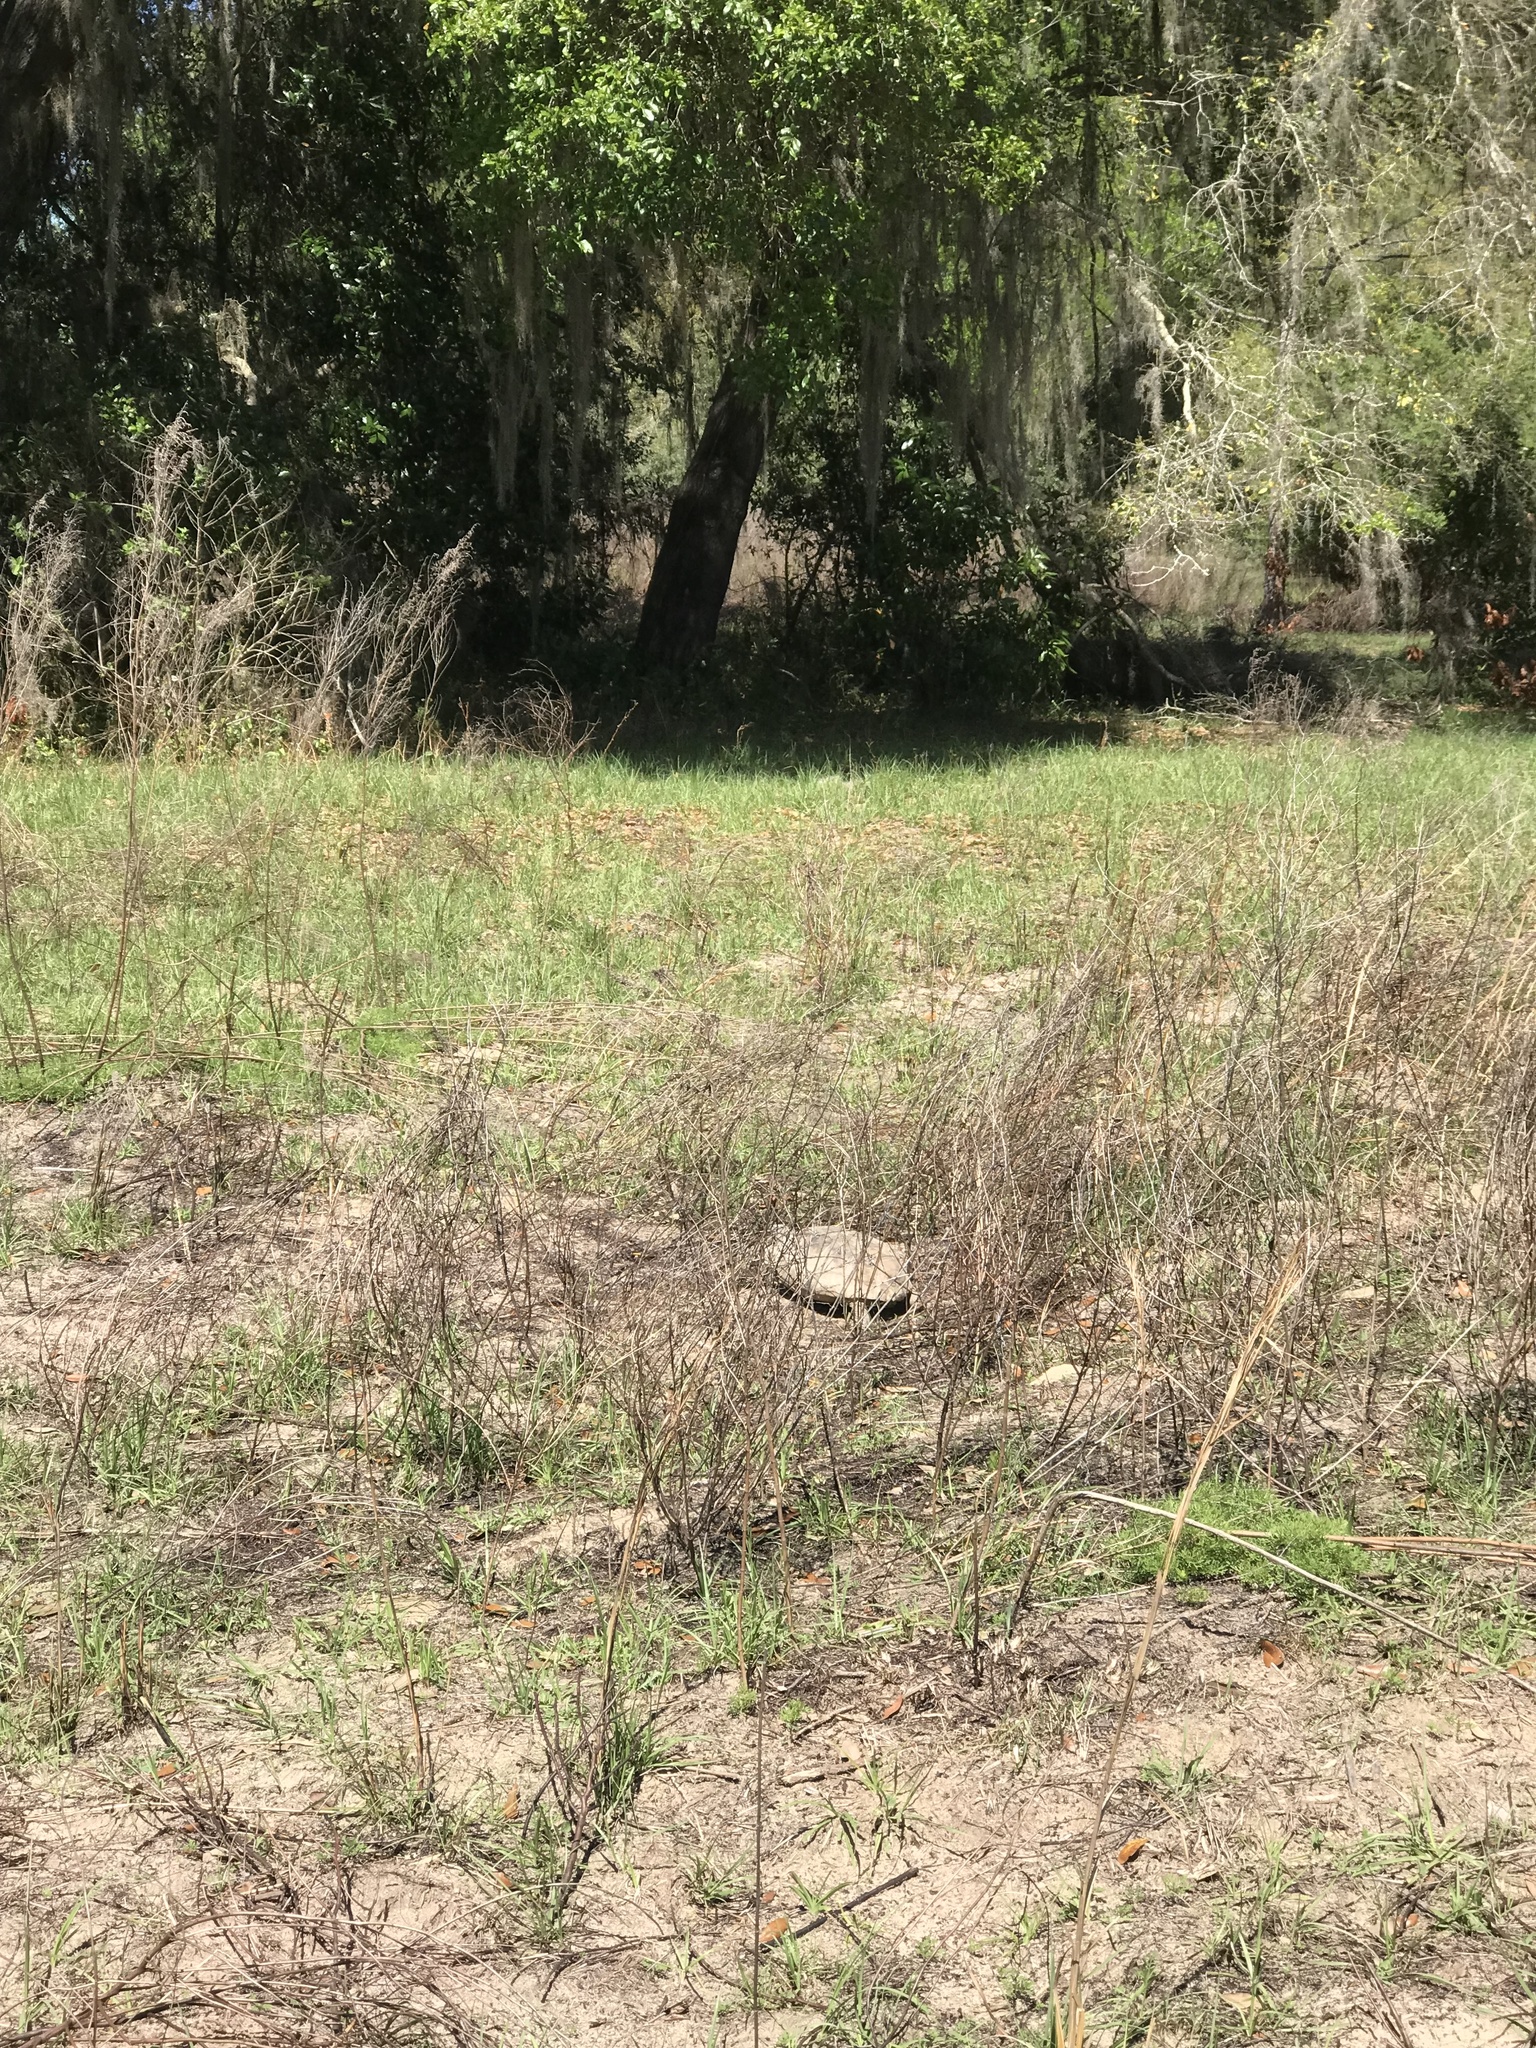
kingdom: Animalia
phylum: Chordata
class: Testudines
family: Testudinidae
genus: Gopherus
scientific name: Gopherus polyphemus
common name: Florida gopher tortoise
